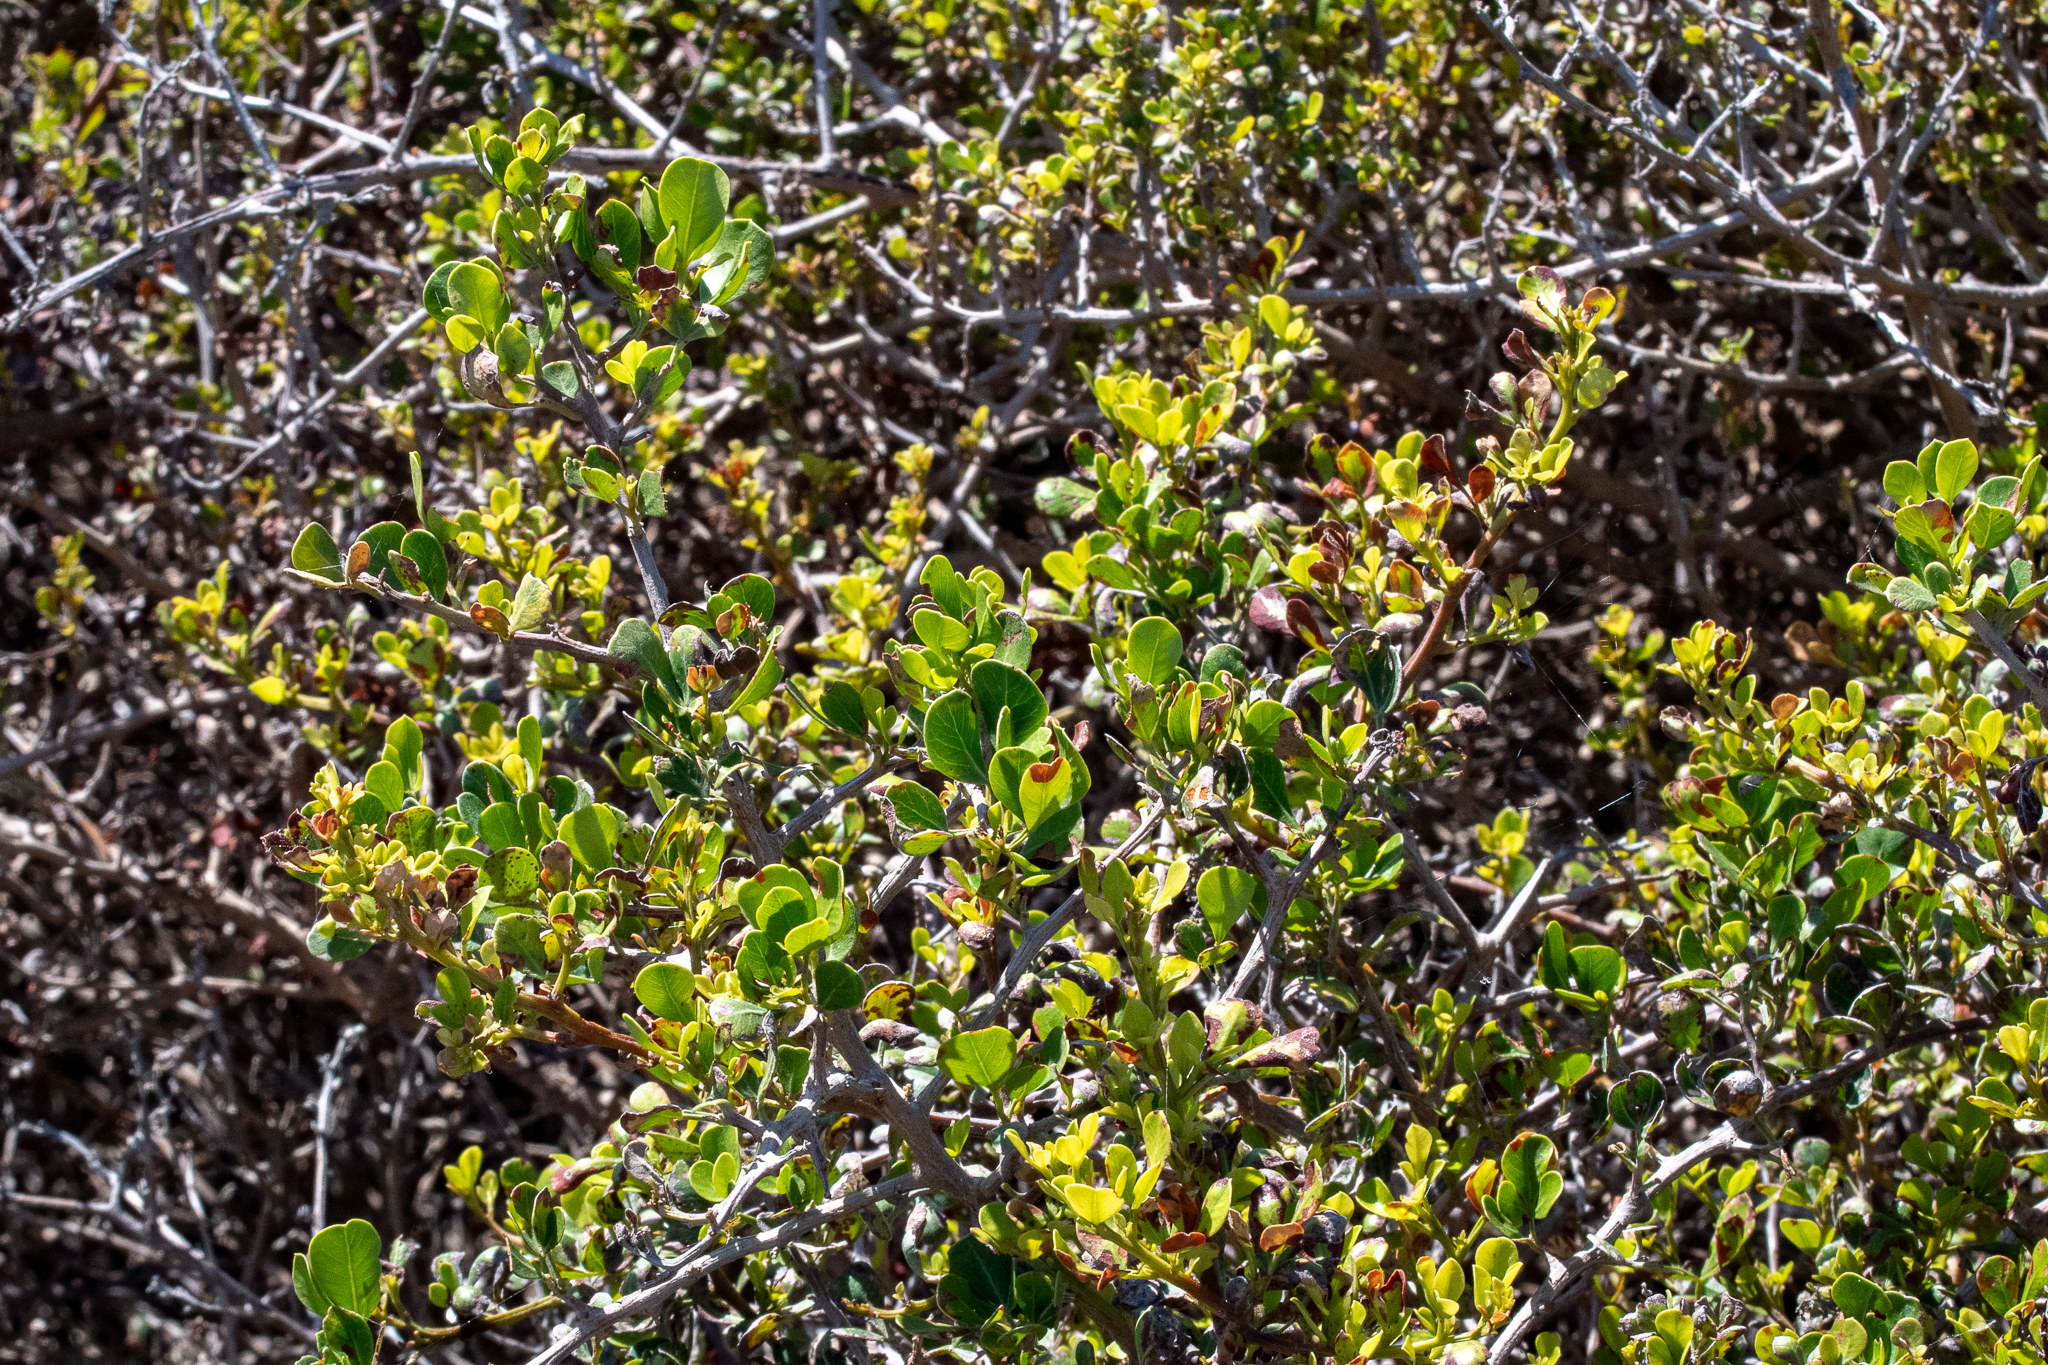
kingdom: Plantae
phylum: Tracheophyta
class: Magnoliopsida
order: Sapindales
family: Anacardiaceae
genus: Searsia
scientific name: Searsia glauca
